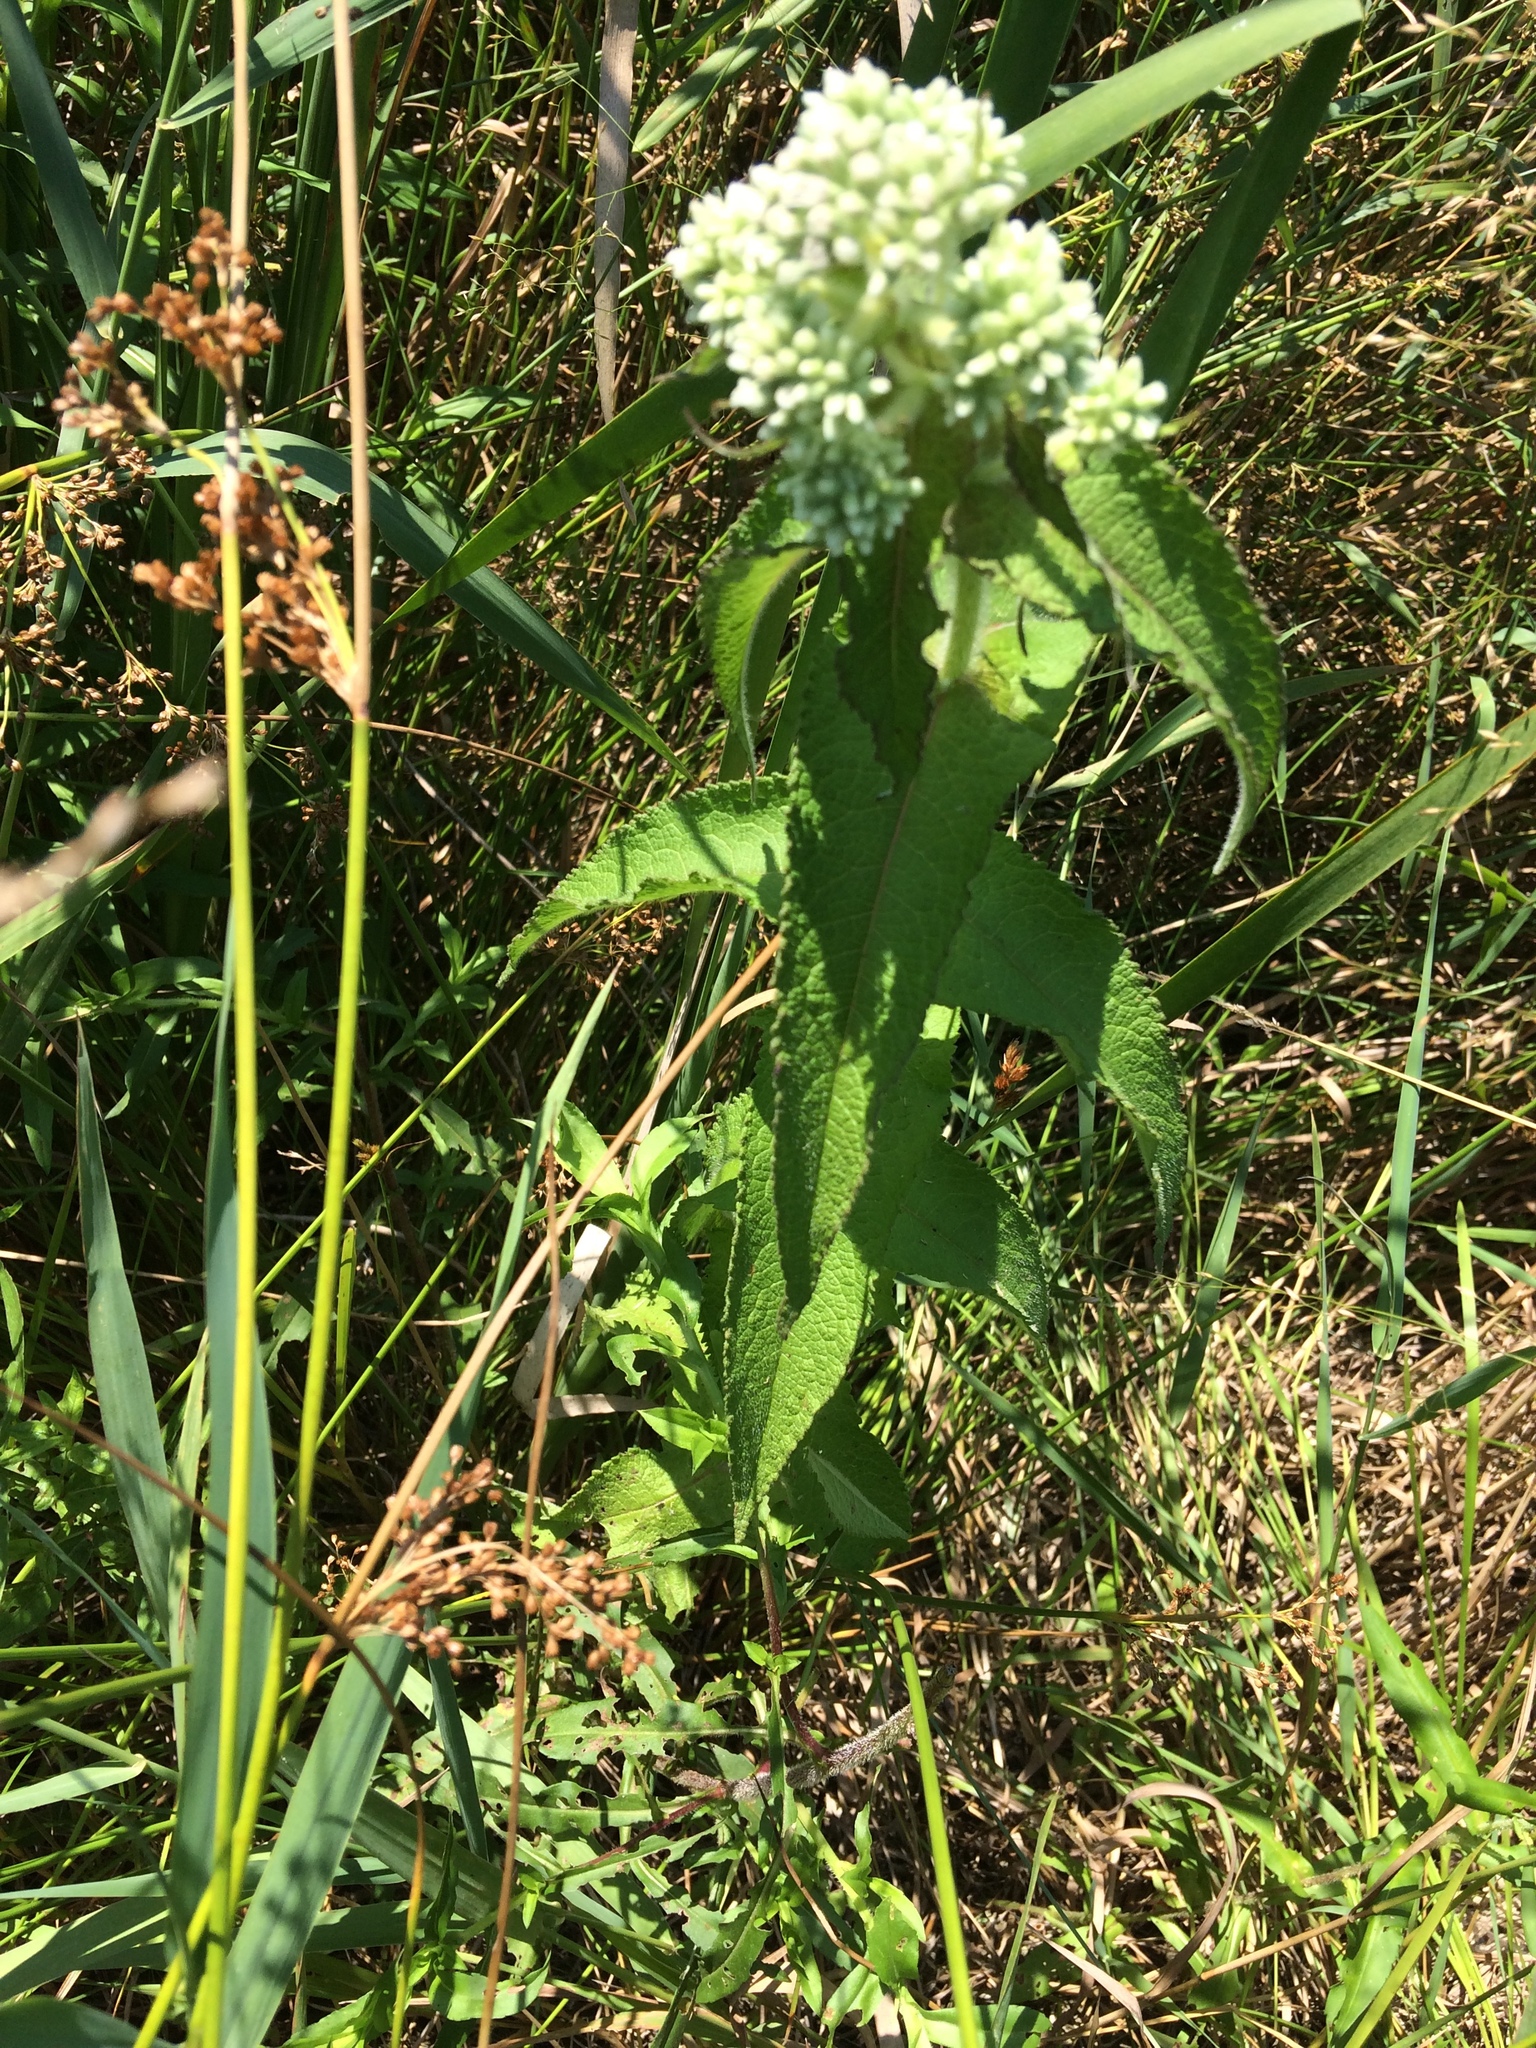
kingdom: Plantae
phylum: Tracheophyta
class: Magnoliopsida
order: Asterales
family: Asteraceae
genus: Eupatorium
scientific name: Eupatorium perfoliatum
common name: Boneset
